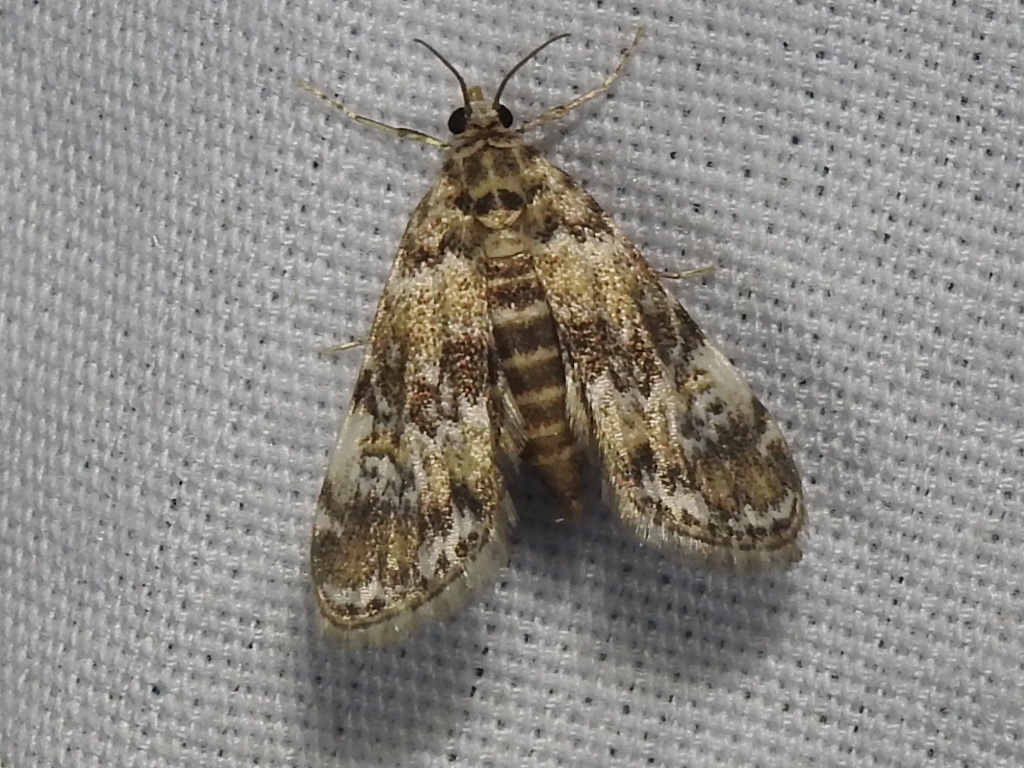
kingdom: Animalia
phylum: Arthropoda
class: Insecta
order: Lepidoptera
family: Crambidae
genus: Elophila
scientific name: Elophila obliteralis
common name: Waterlily leafcutter moth
